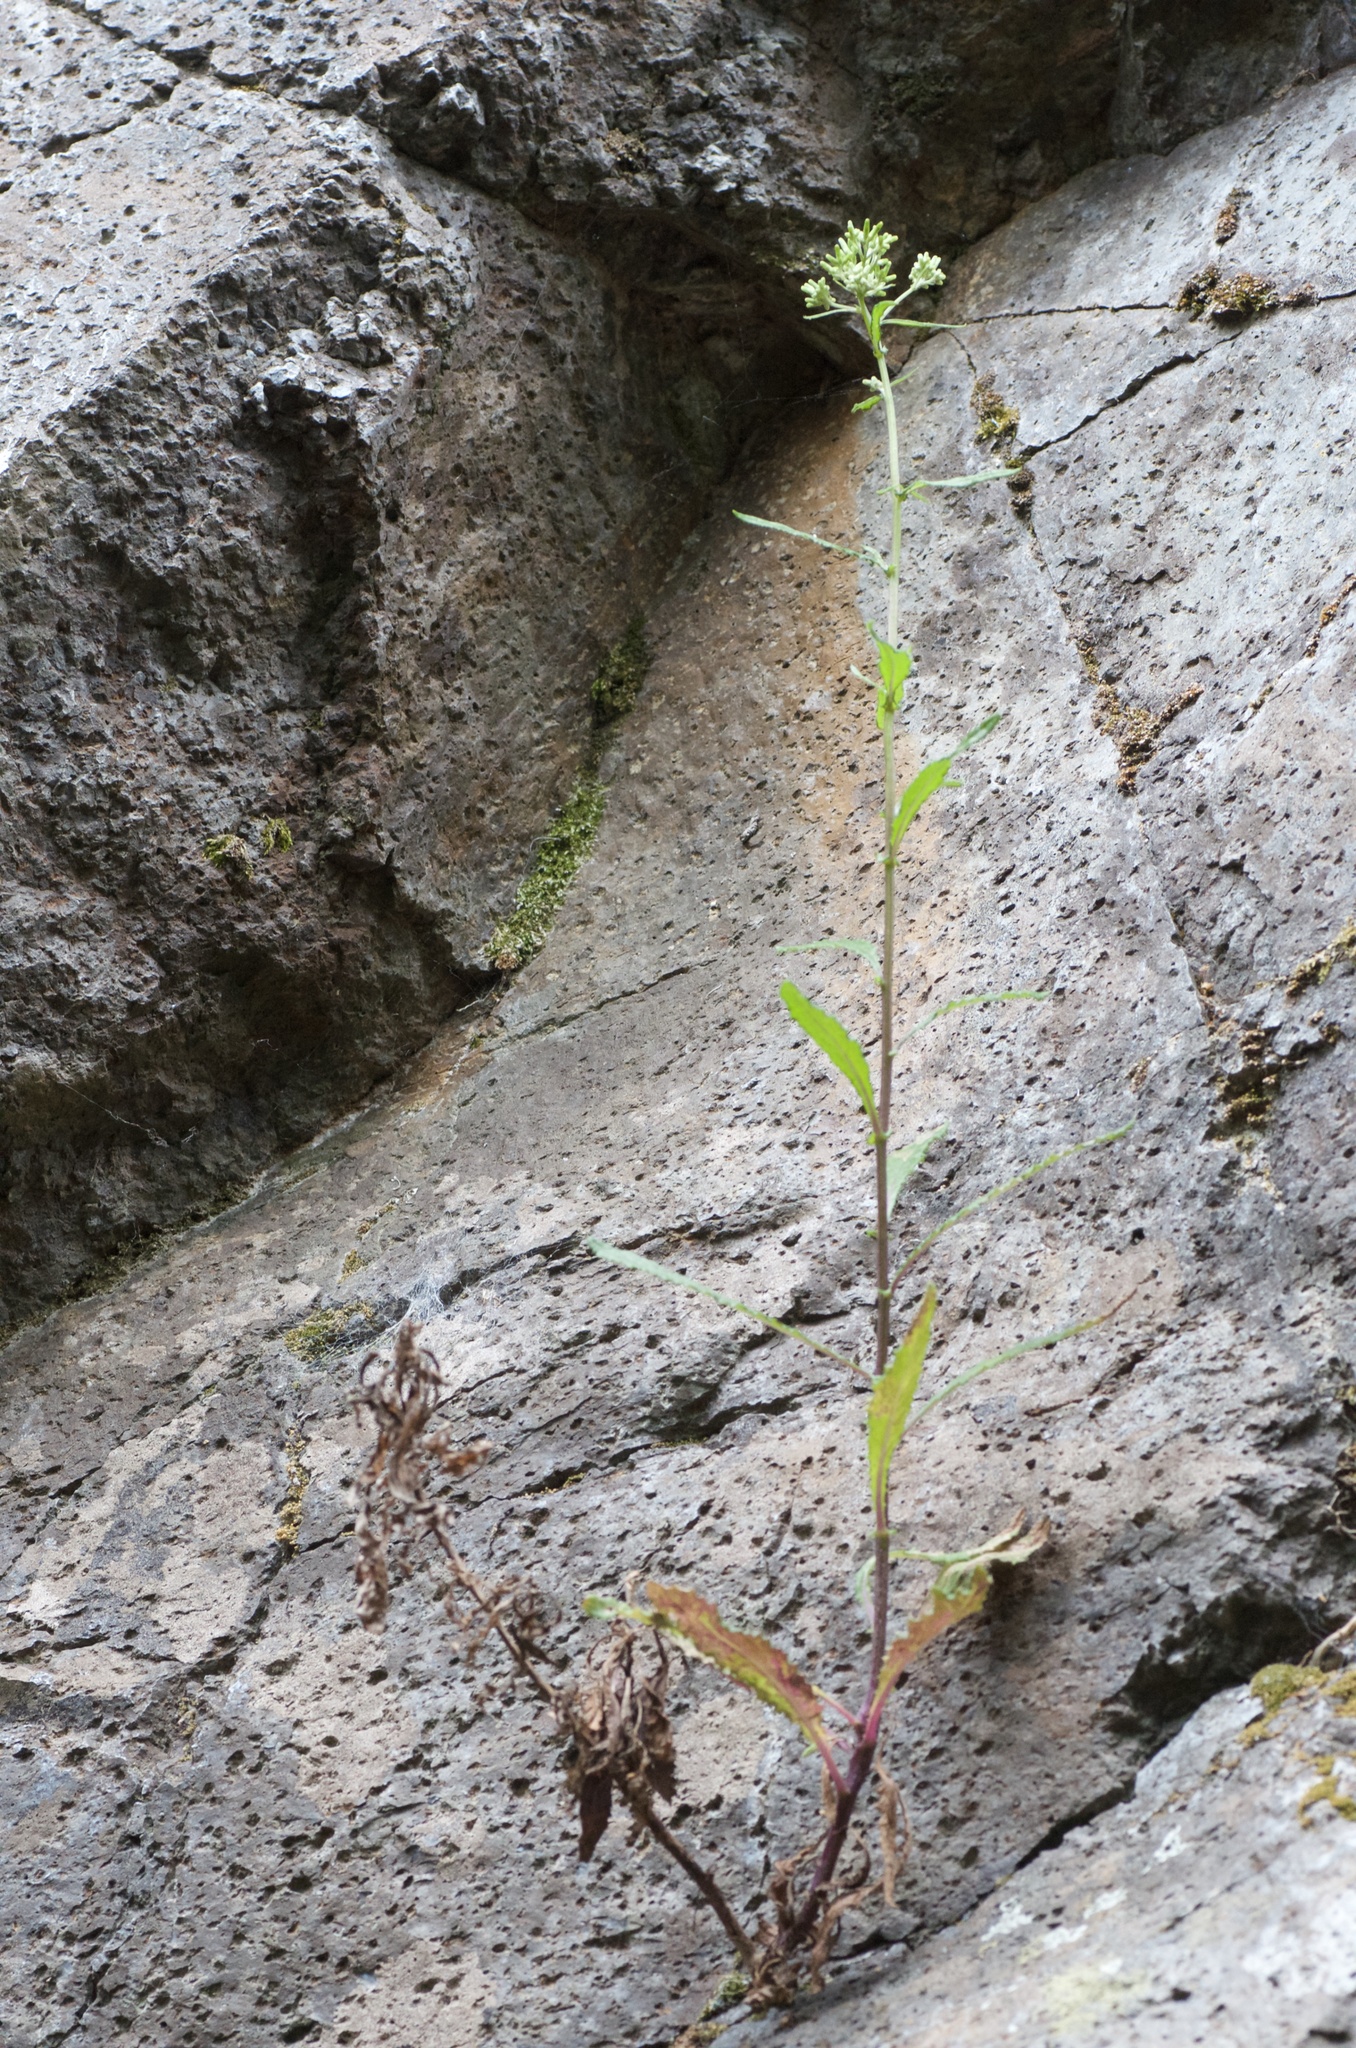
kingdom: Plantae
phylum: Tracheophyta
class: Magnoliopsida
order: Asterales
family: Asteraceae
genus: Senecio
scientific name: Senecio minimus
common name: Toothed fireweed
